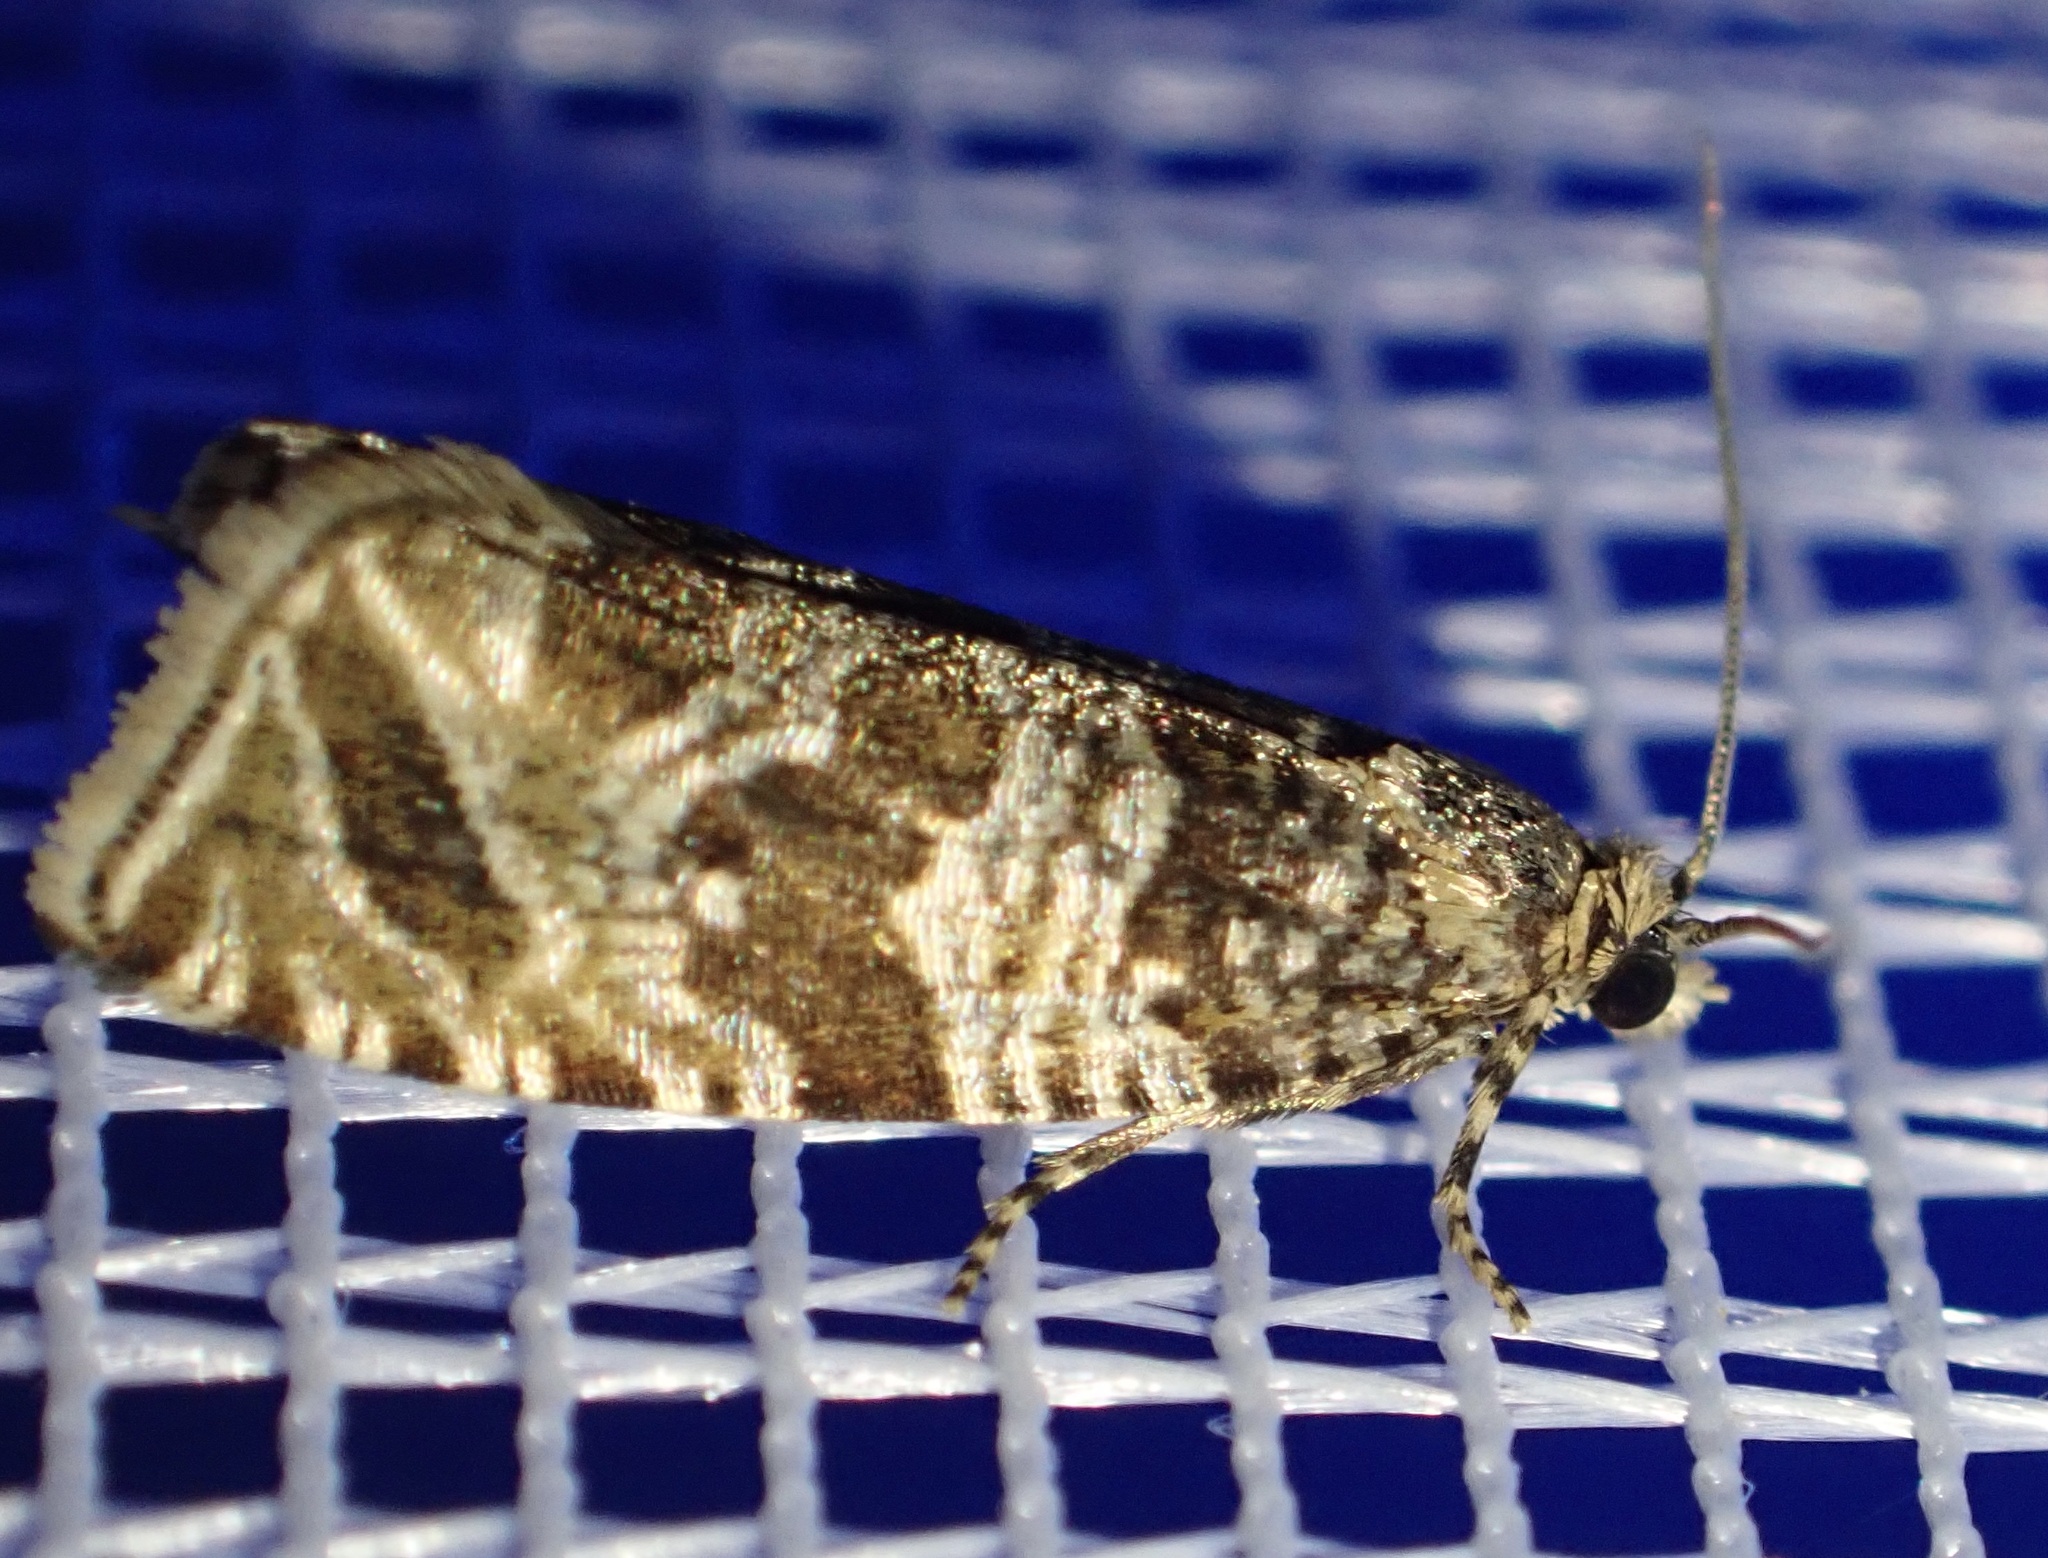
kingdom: Animalia
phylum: Arthropoda
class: Insecta
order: Lepidoptera
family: Tortricidae
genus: Syricoris
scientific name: Syricoris rivulana
